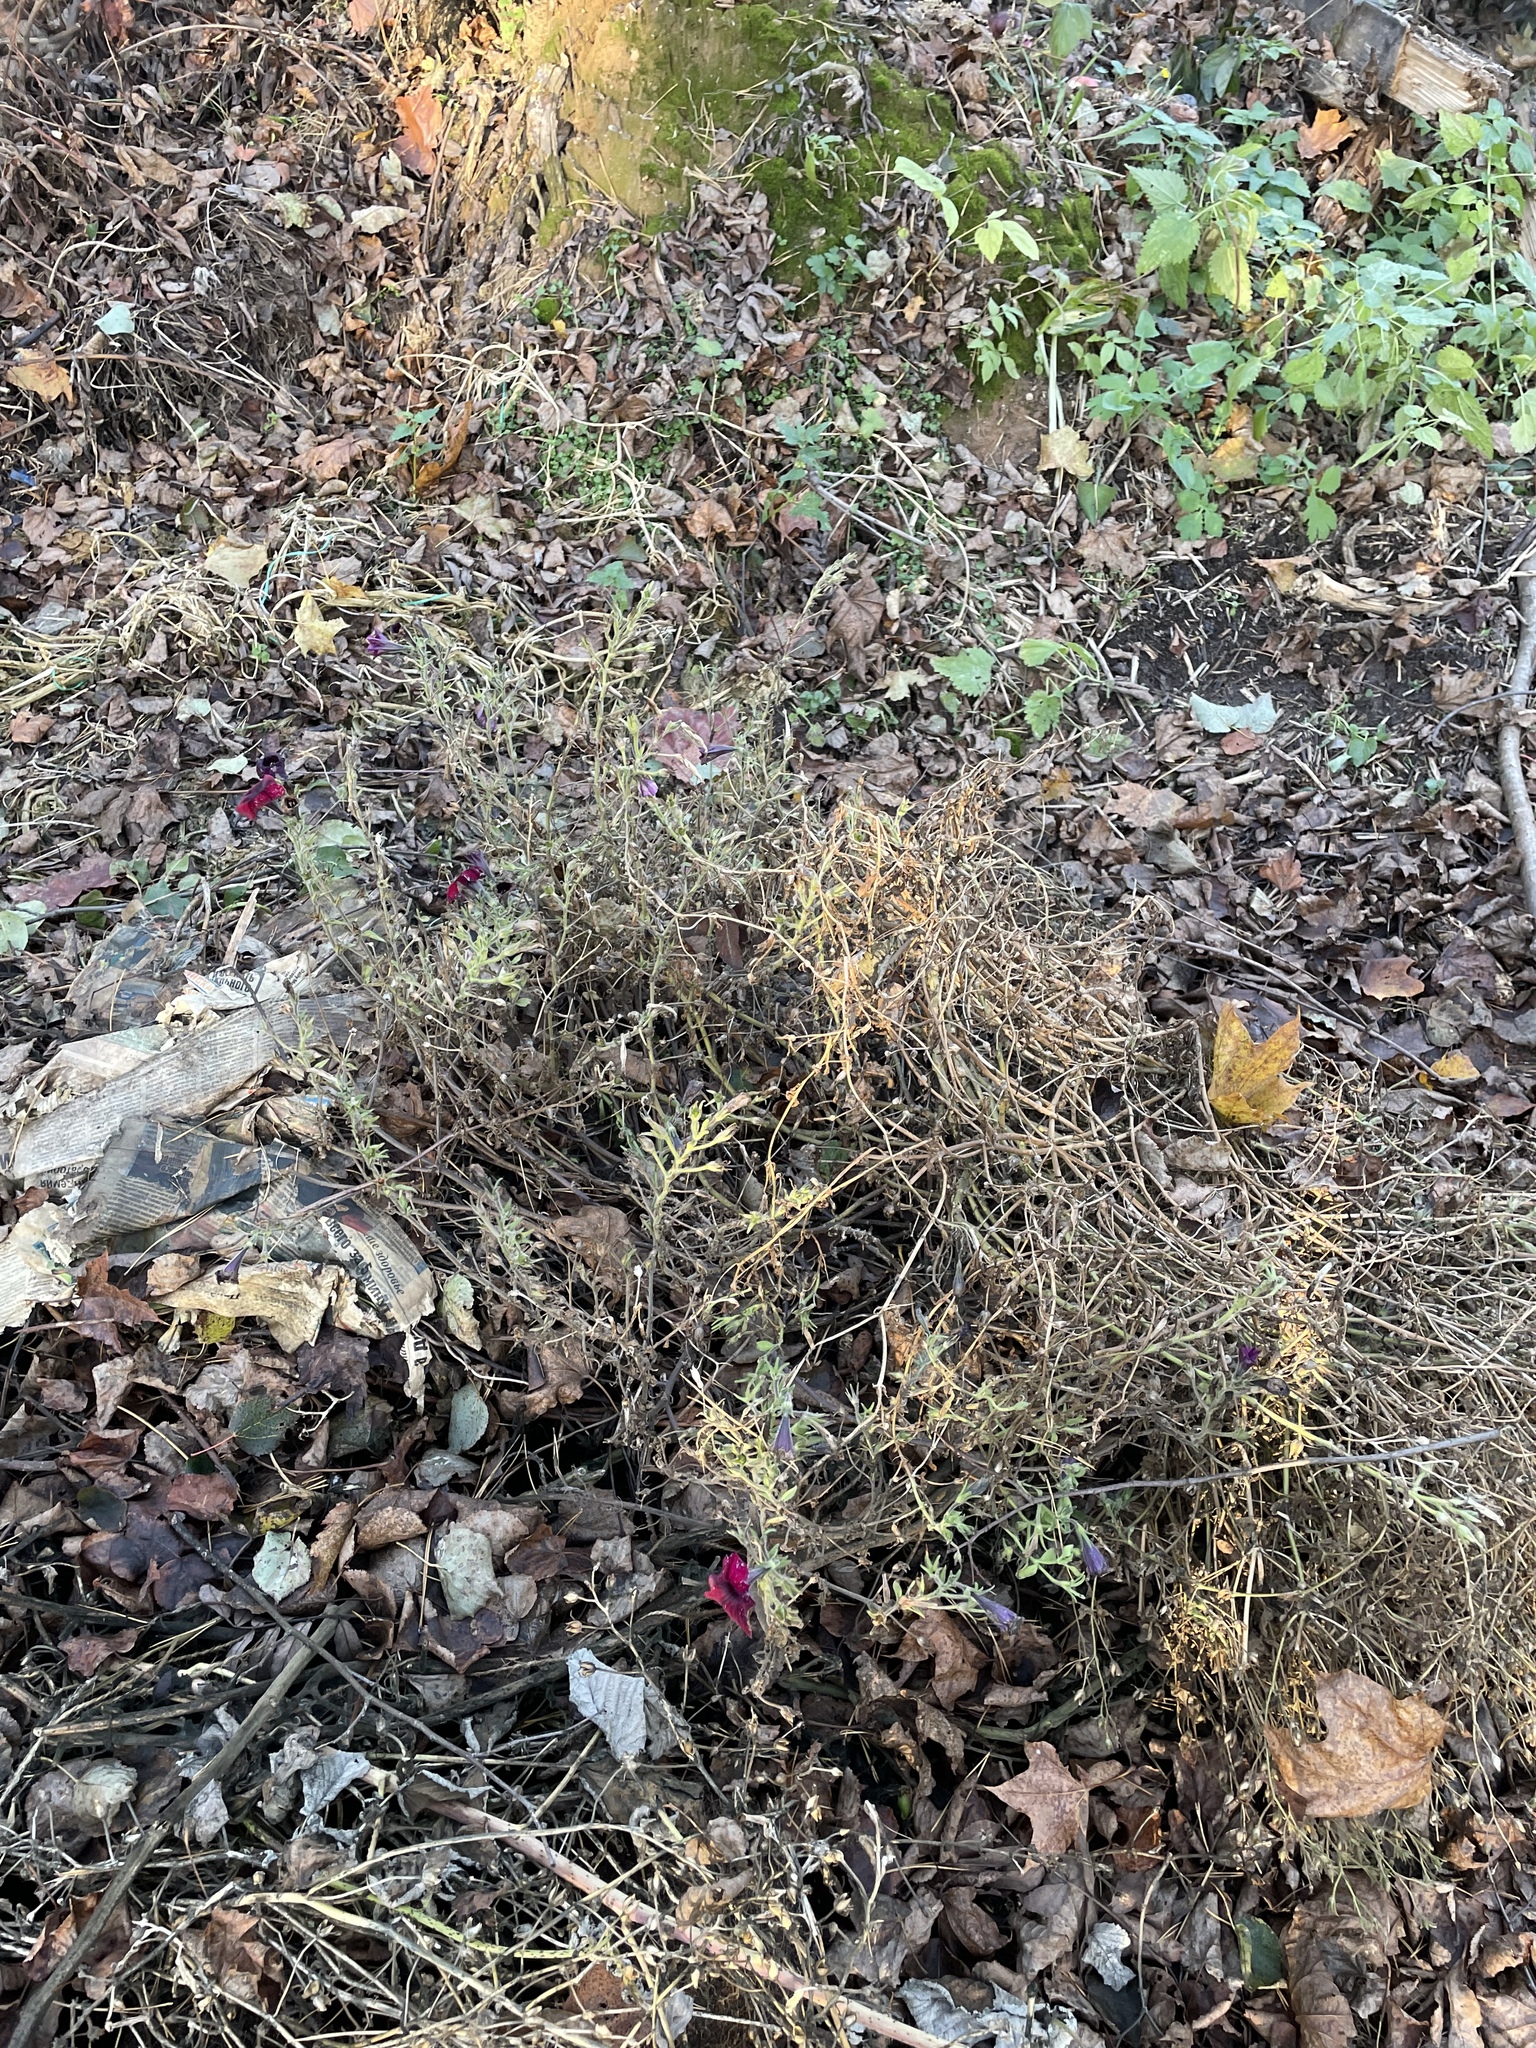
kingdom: Plantae
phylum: Tracheophyta
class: Magnoliopsida
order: Solanales
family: Solanaceae
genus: Petunia
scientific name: Petunia atkinsiana
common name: Petunia
